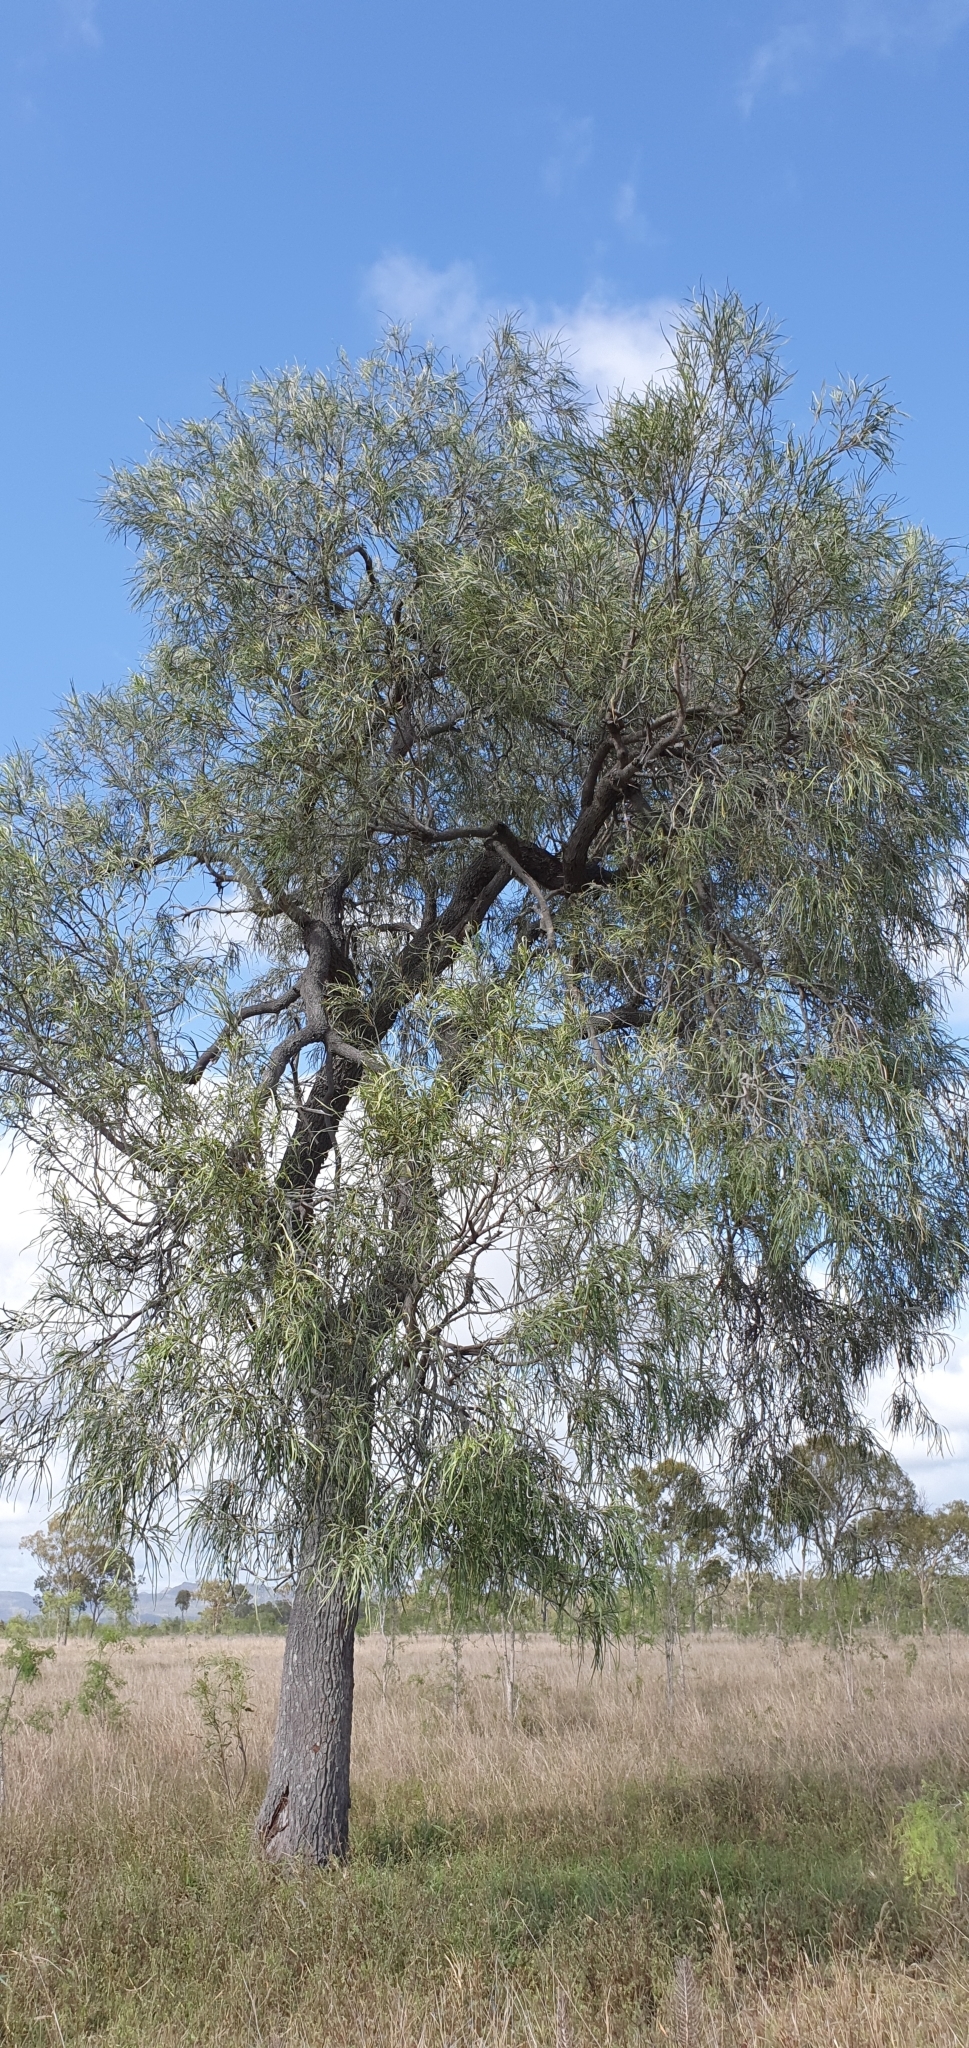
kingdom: Plantae
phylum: Tracheophyta
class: Magnoliopsida
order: Proteales
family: Proteaceae
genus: Grevillea
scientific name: Grevillea striata
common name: Beefwood
